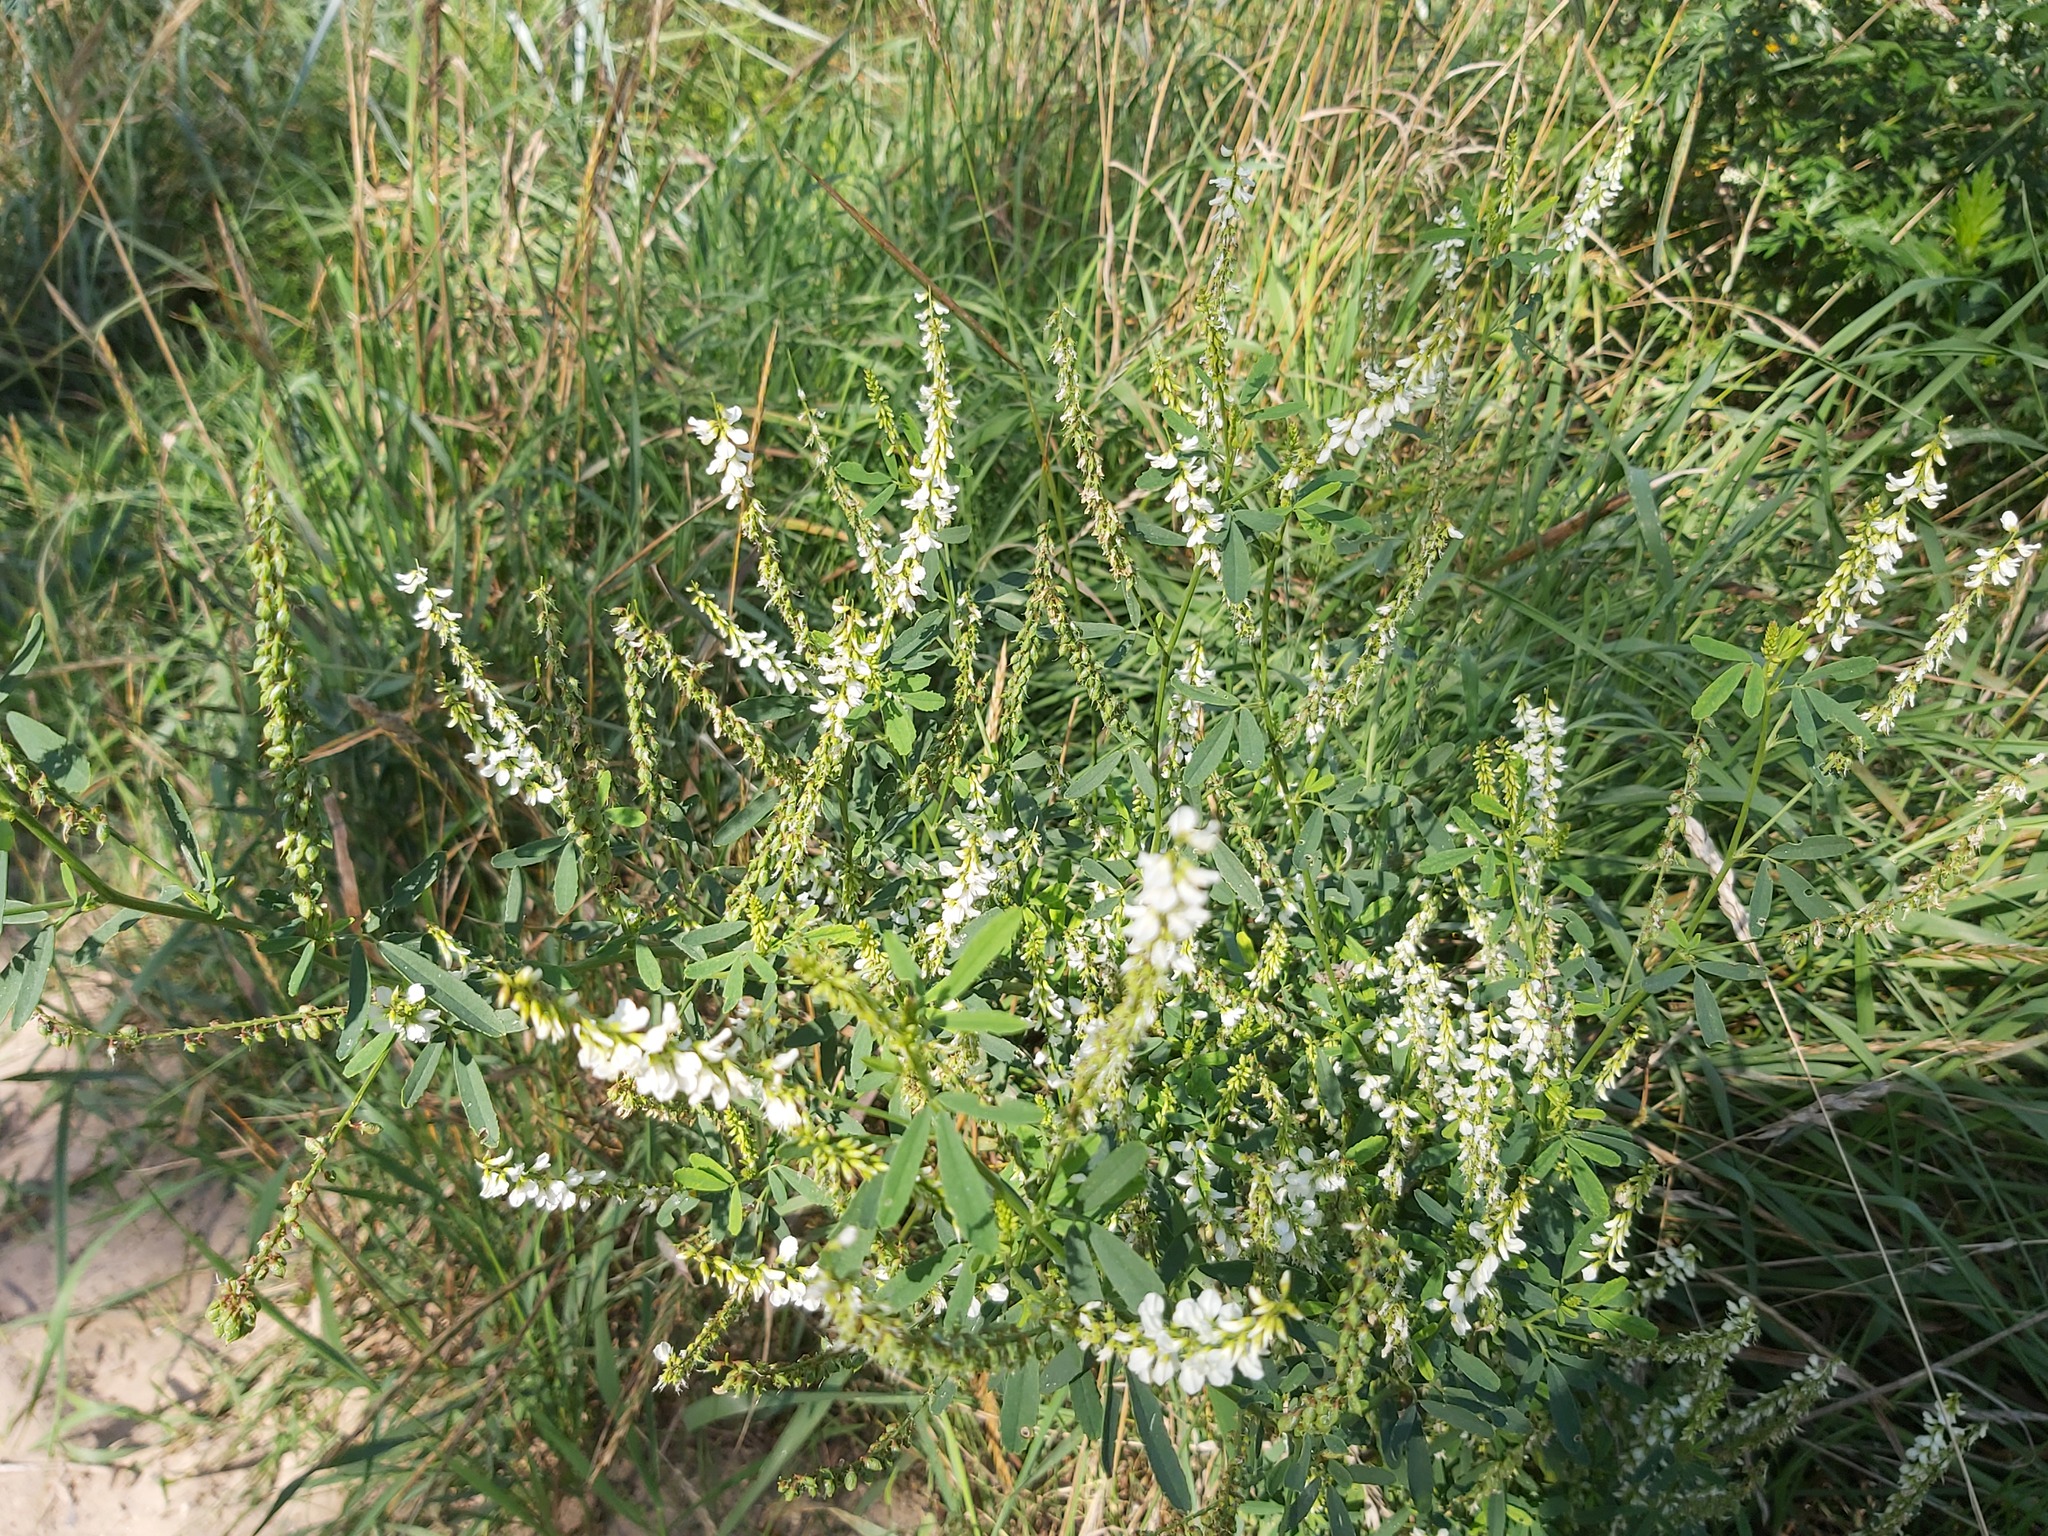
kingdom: Plantae
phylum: Tracheophyta
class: Magnoliopsida
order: Fabales
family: Fabaceae
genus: Melilotus
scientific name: Melilotus albus
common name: White melilot
